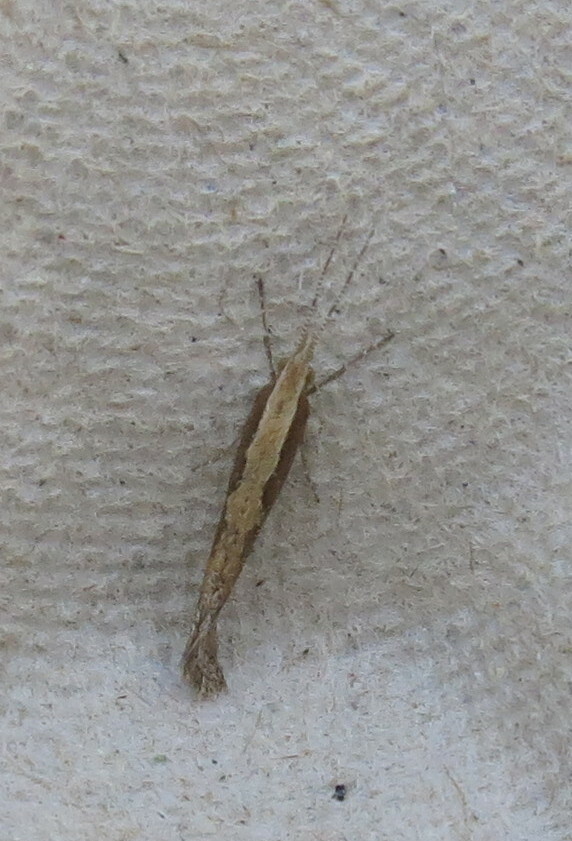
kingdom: Animalia
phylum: Arthropoda
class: Insecta
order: Lepidoptera
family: Plutellidae
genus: Plutella
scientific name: Plutella xylostella
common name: Diamond-back moth
